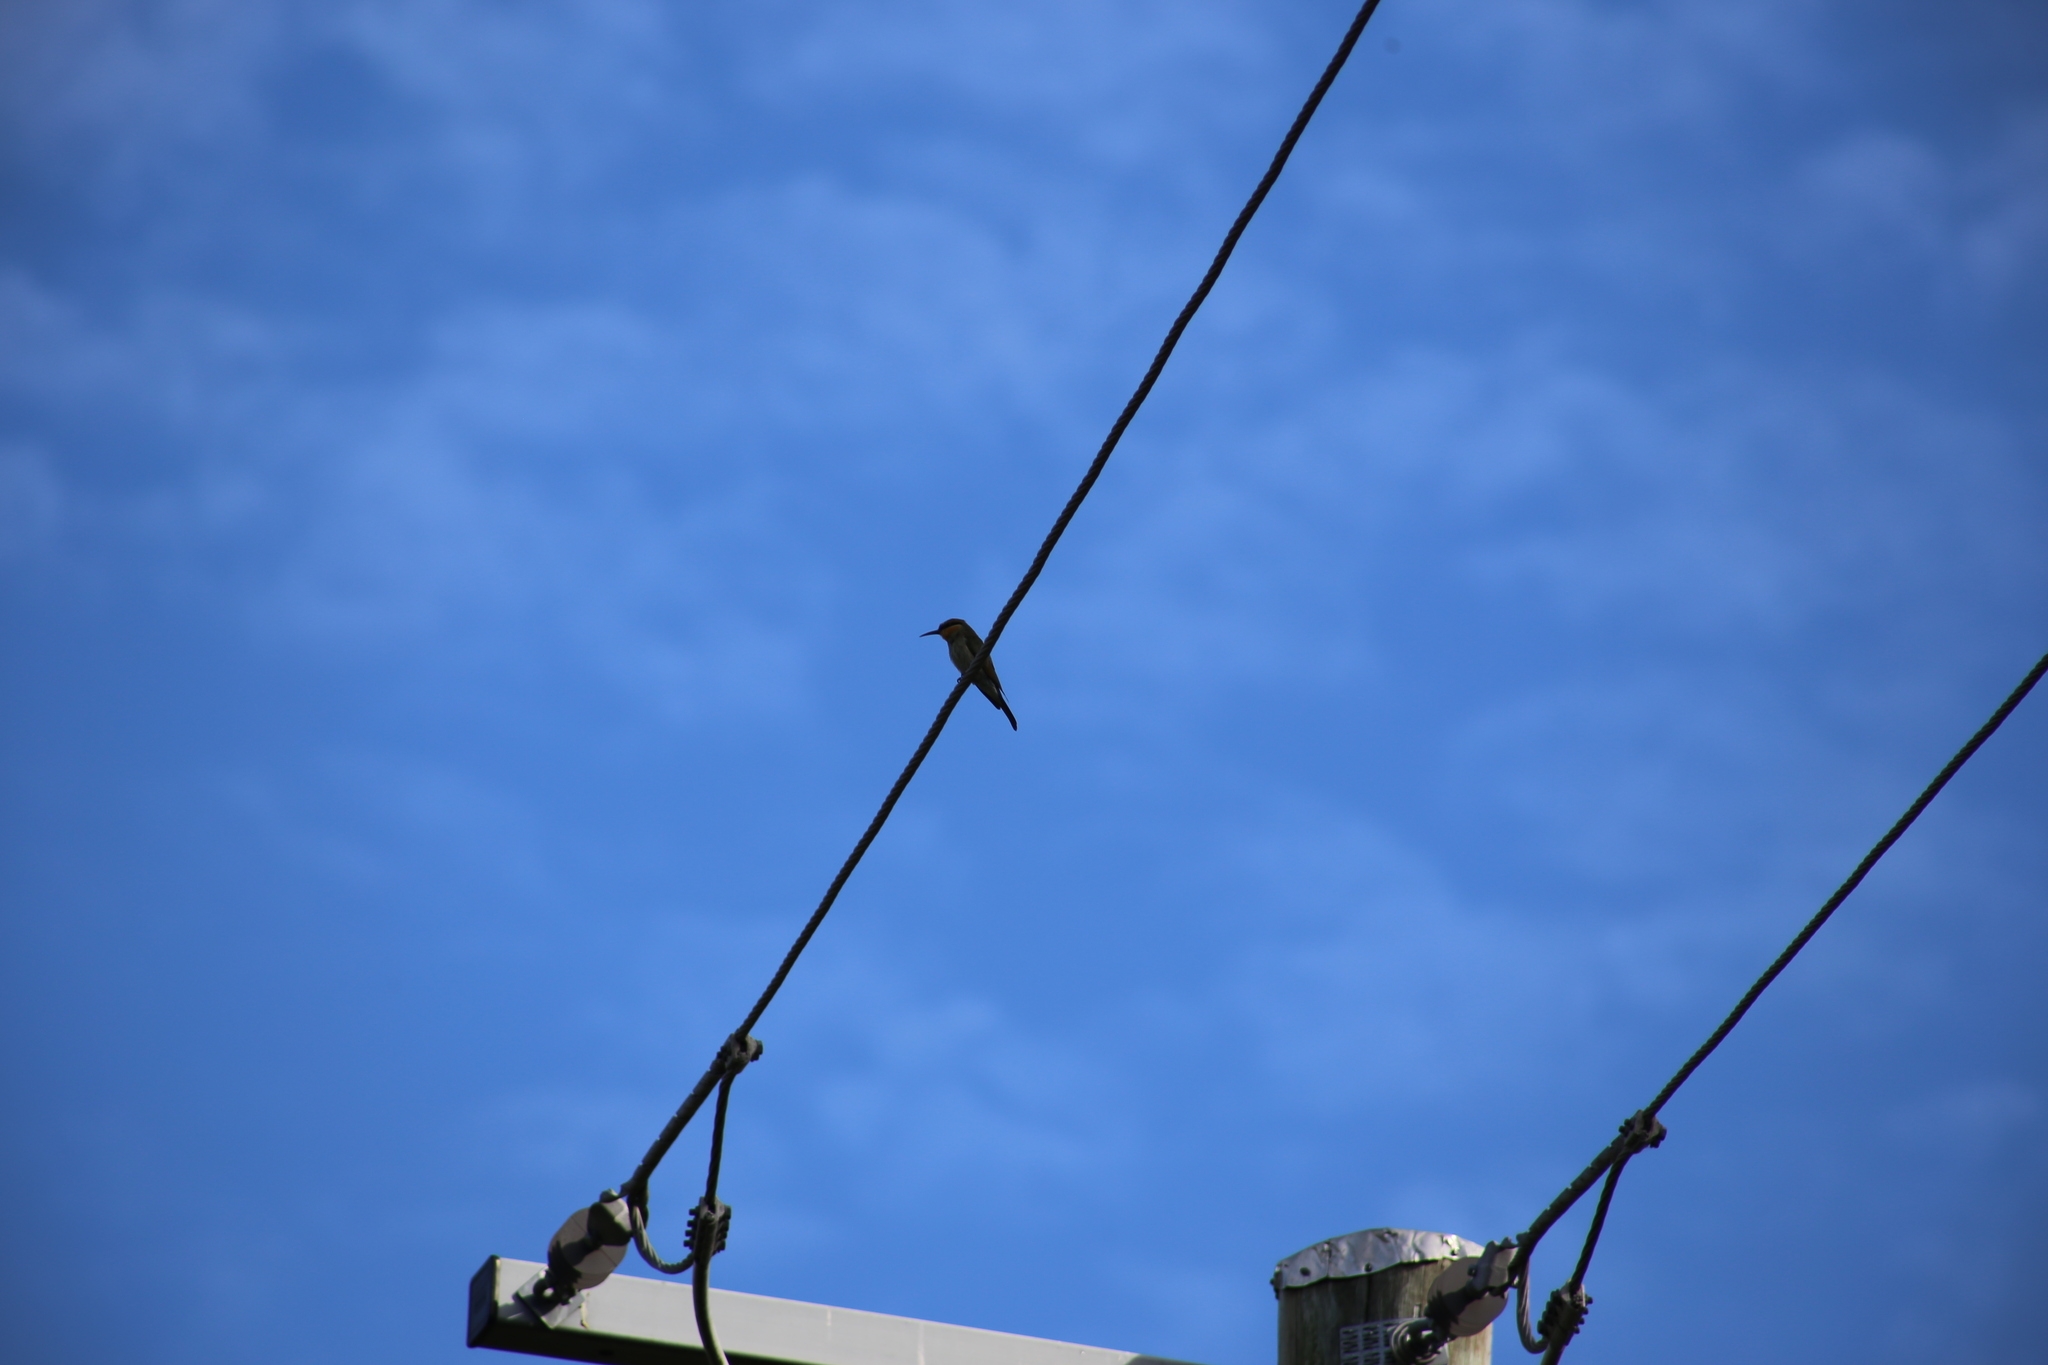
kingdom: Animalia
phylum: Chordata
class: Aves
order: Coraciiformes
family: Meropidae
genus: Merops
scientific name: Merops ornatus
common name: Rainbow bee-eater
